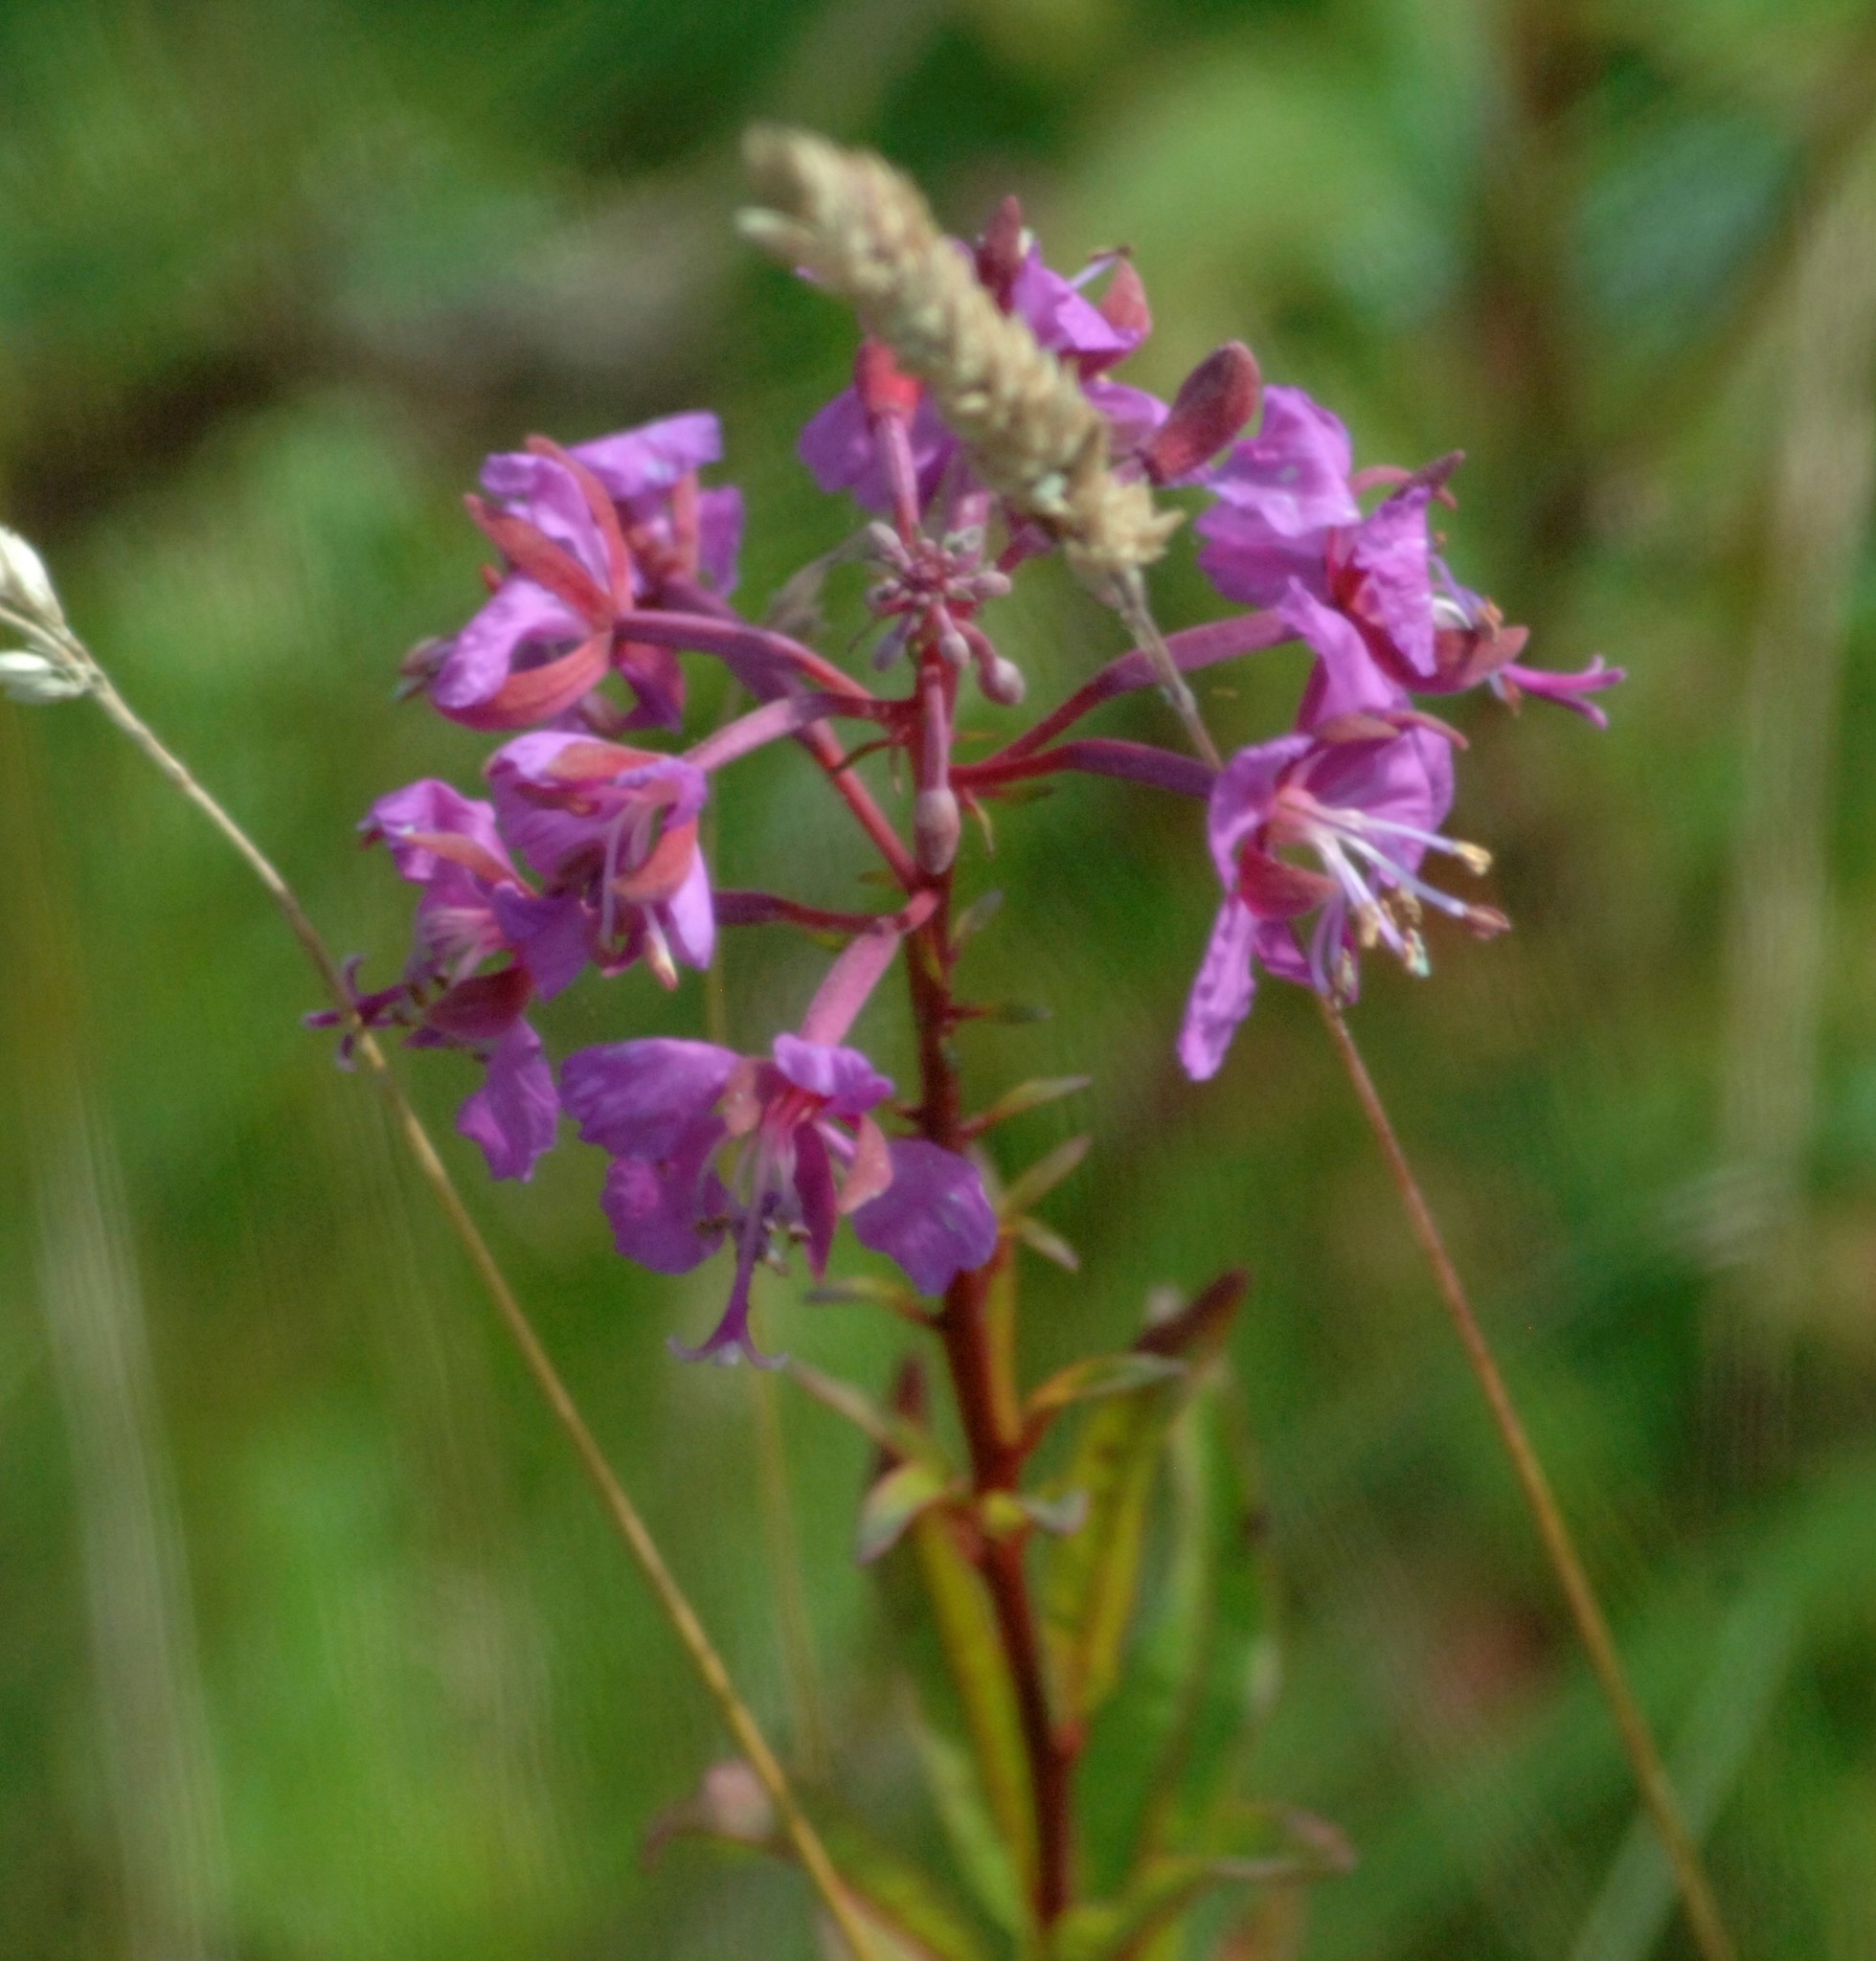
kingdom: Plantae
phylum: Tracheophyta
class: Magnoliopsida
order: Myrtales
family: Onagraceae
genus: Chamaenerion
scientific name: Chamaenerion angustifolium
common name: Fireweed
